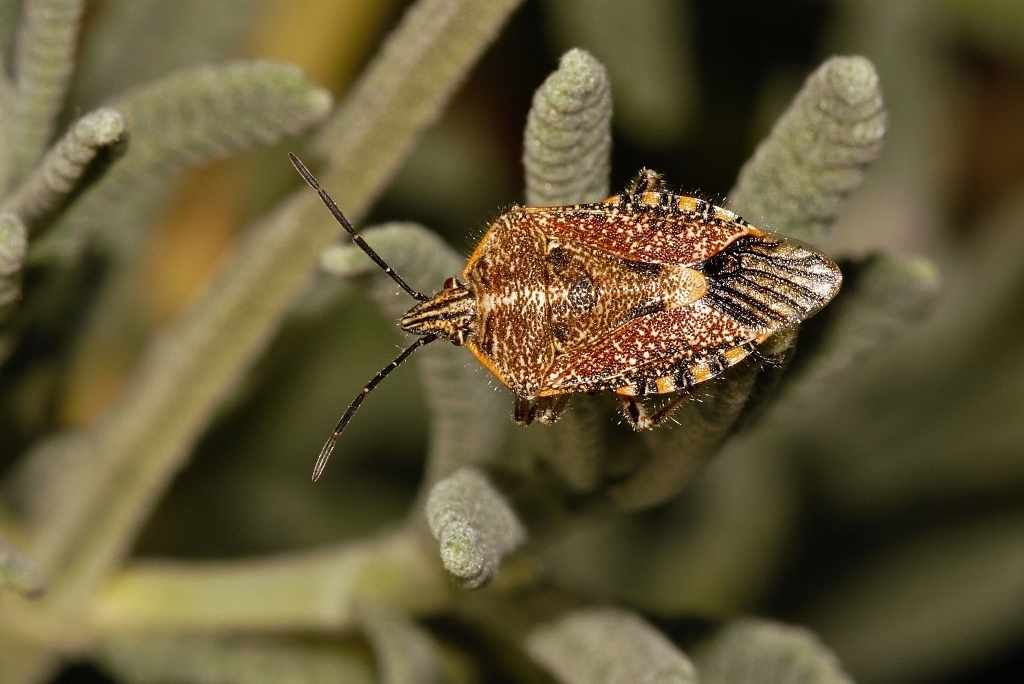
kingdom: Animalia
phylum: Arthropoda
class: Insecta
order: Hemiptera
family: Pentatomidae
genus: Agonoscelis
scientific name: Agonoscelis versicoloratus
